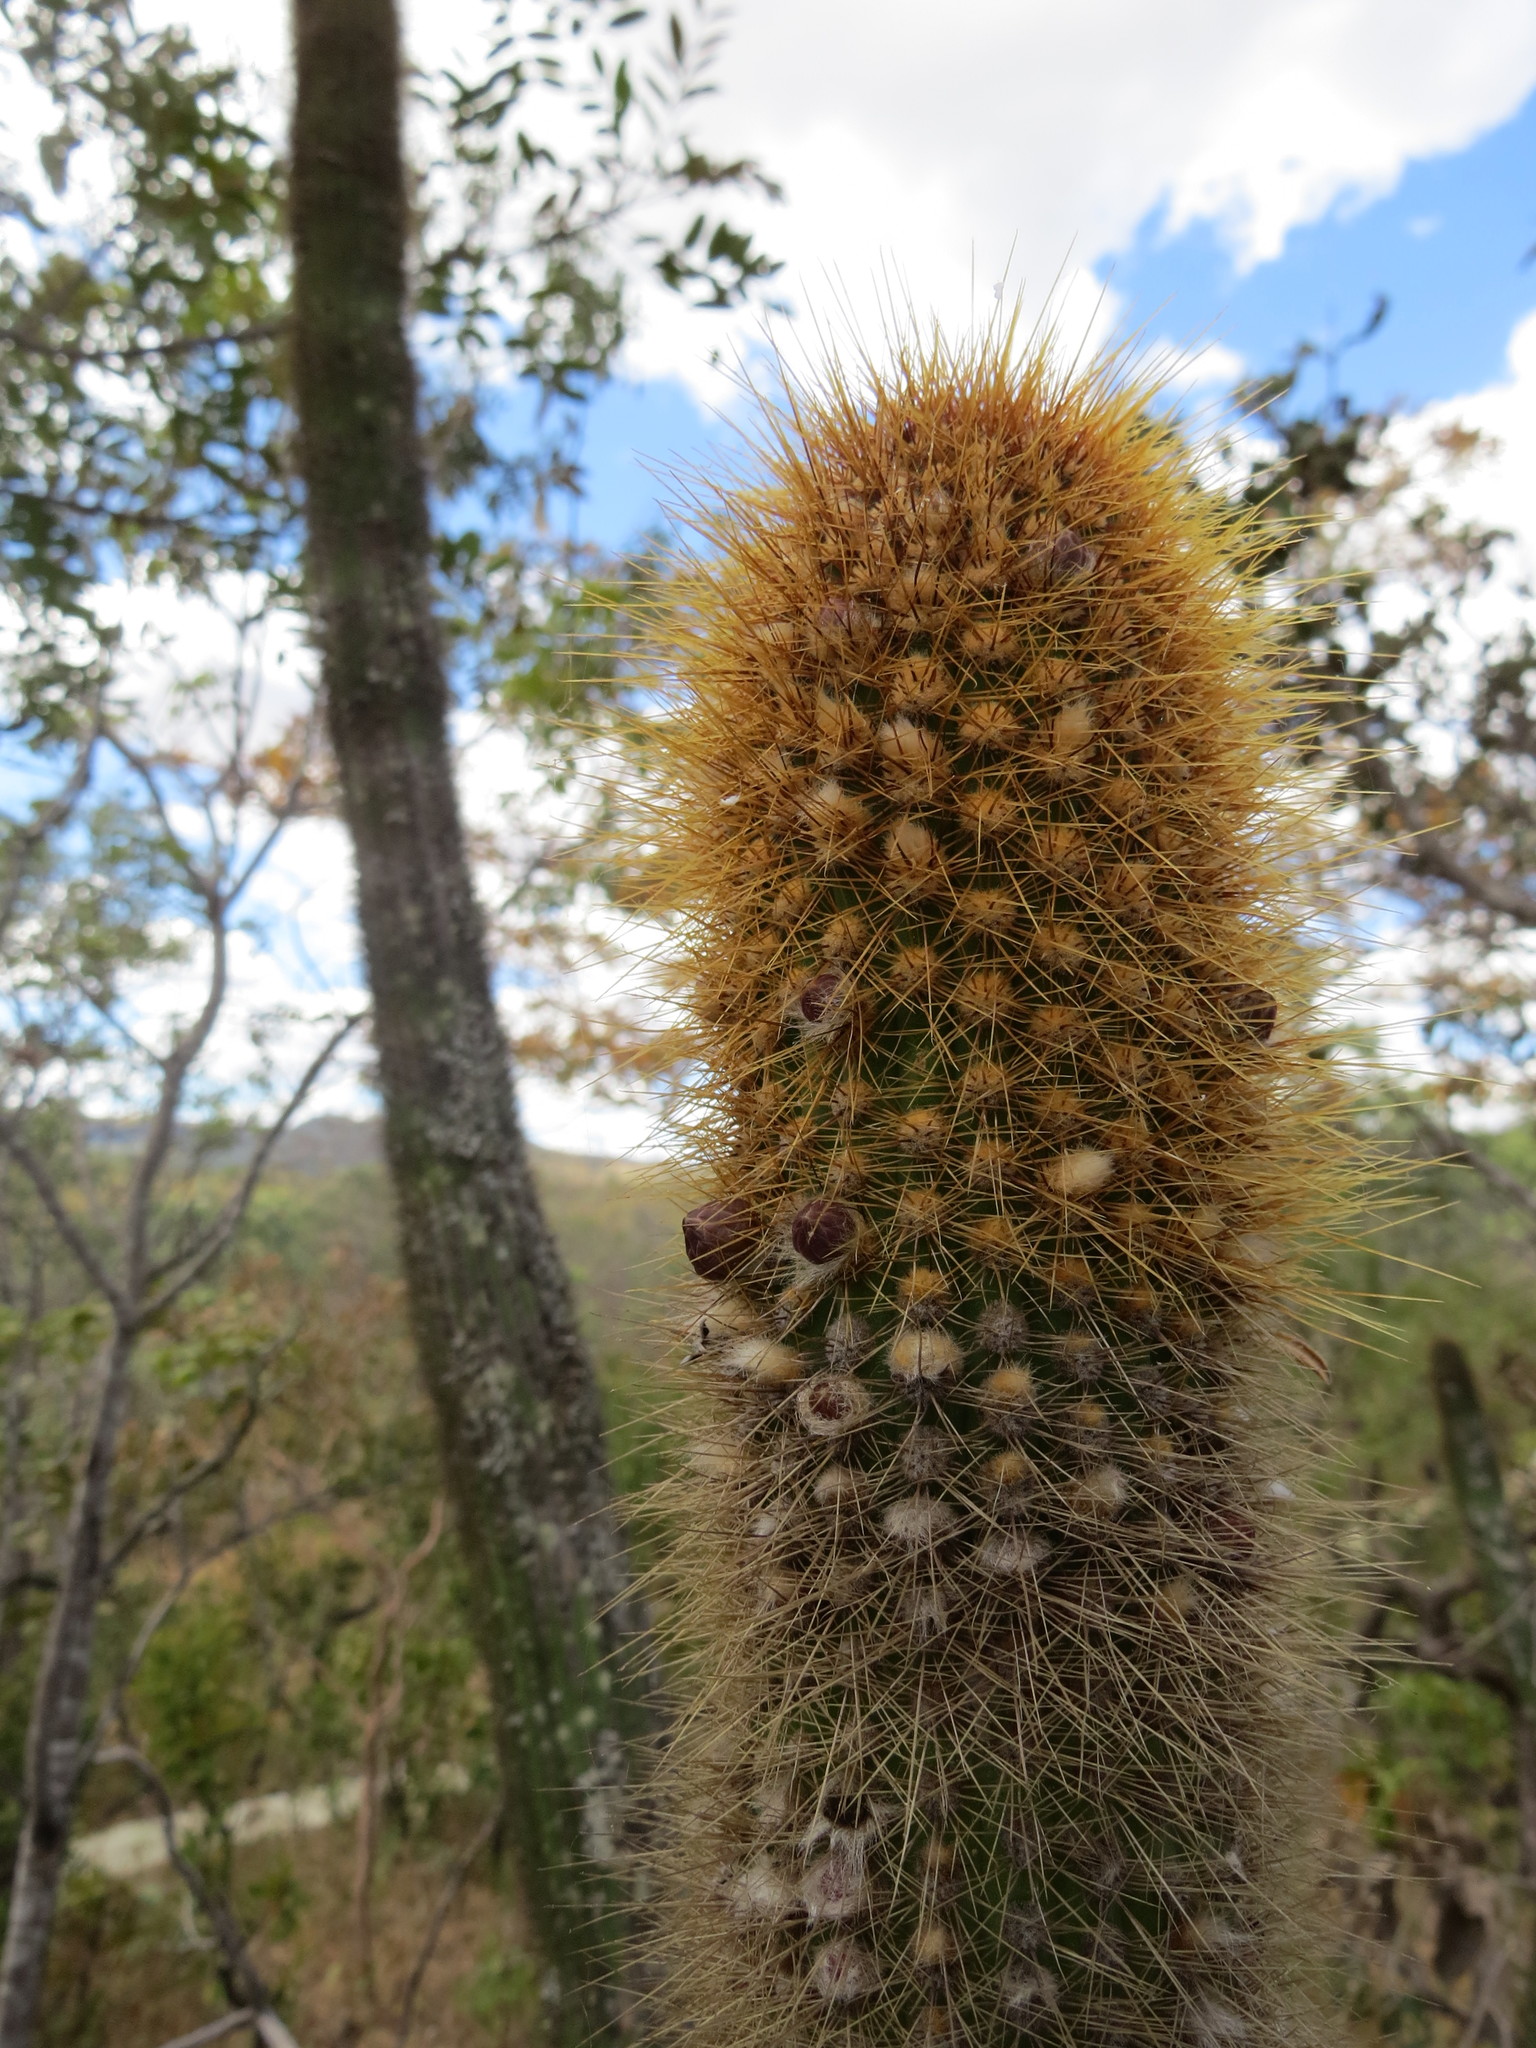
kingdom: Plantae
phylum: Tracheophyta
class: Magnoliopsida
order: Caryophyllales
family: Cactaceae
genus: Pilosocereus
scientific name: Pilosocereus vilaboensis
